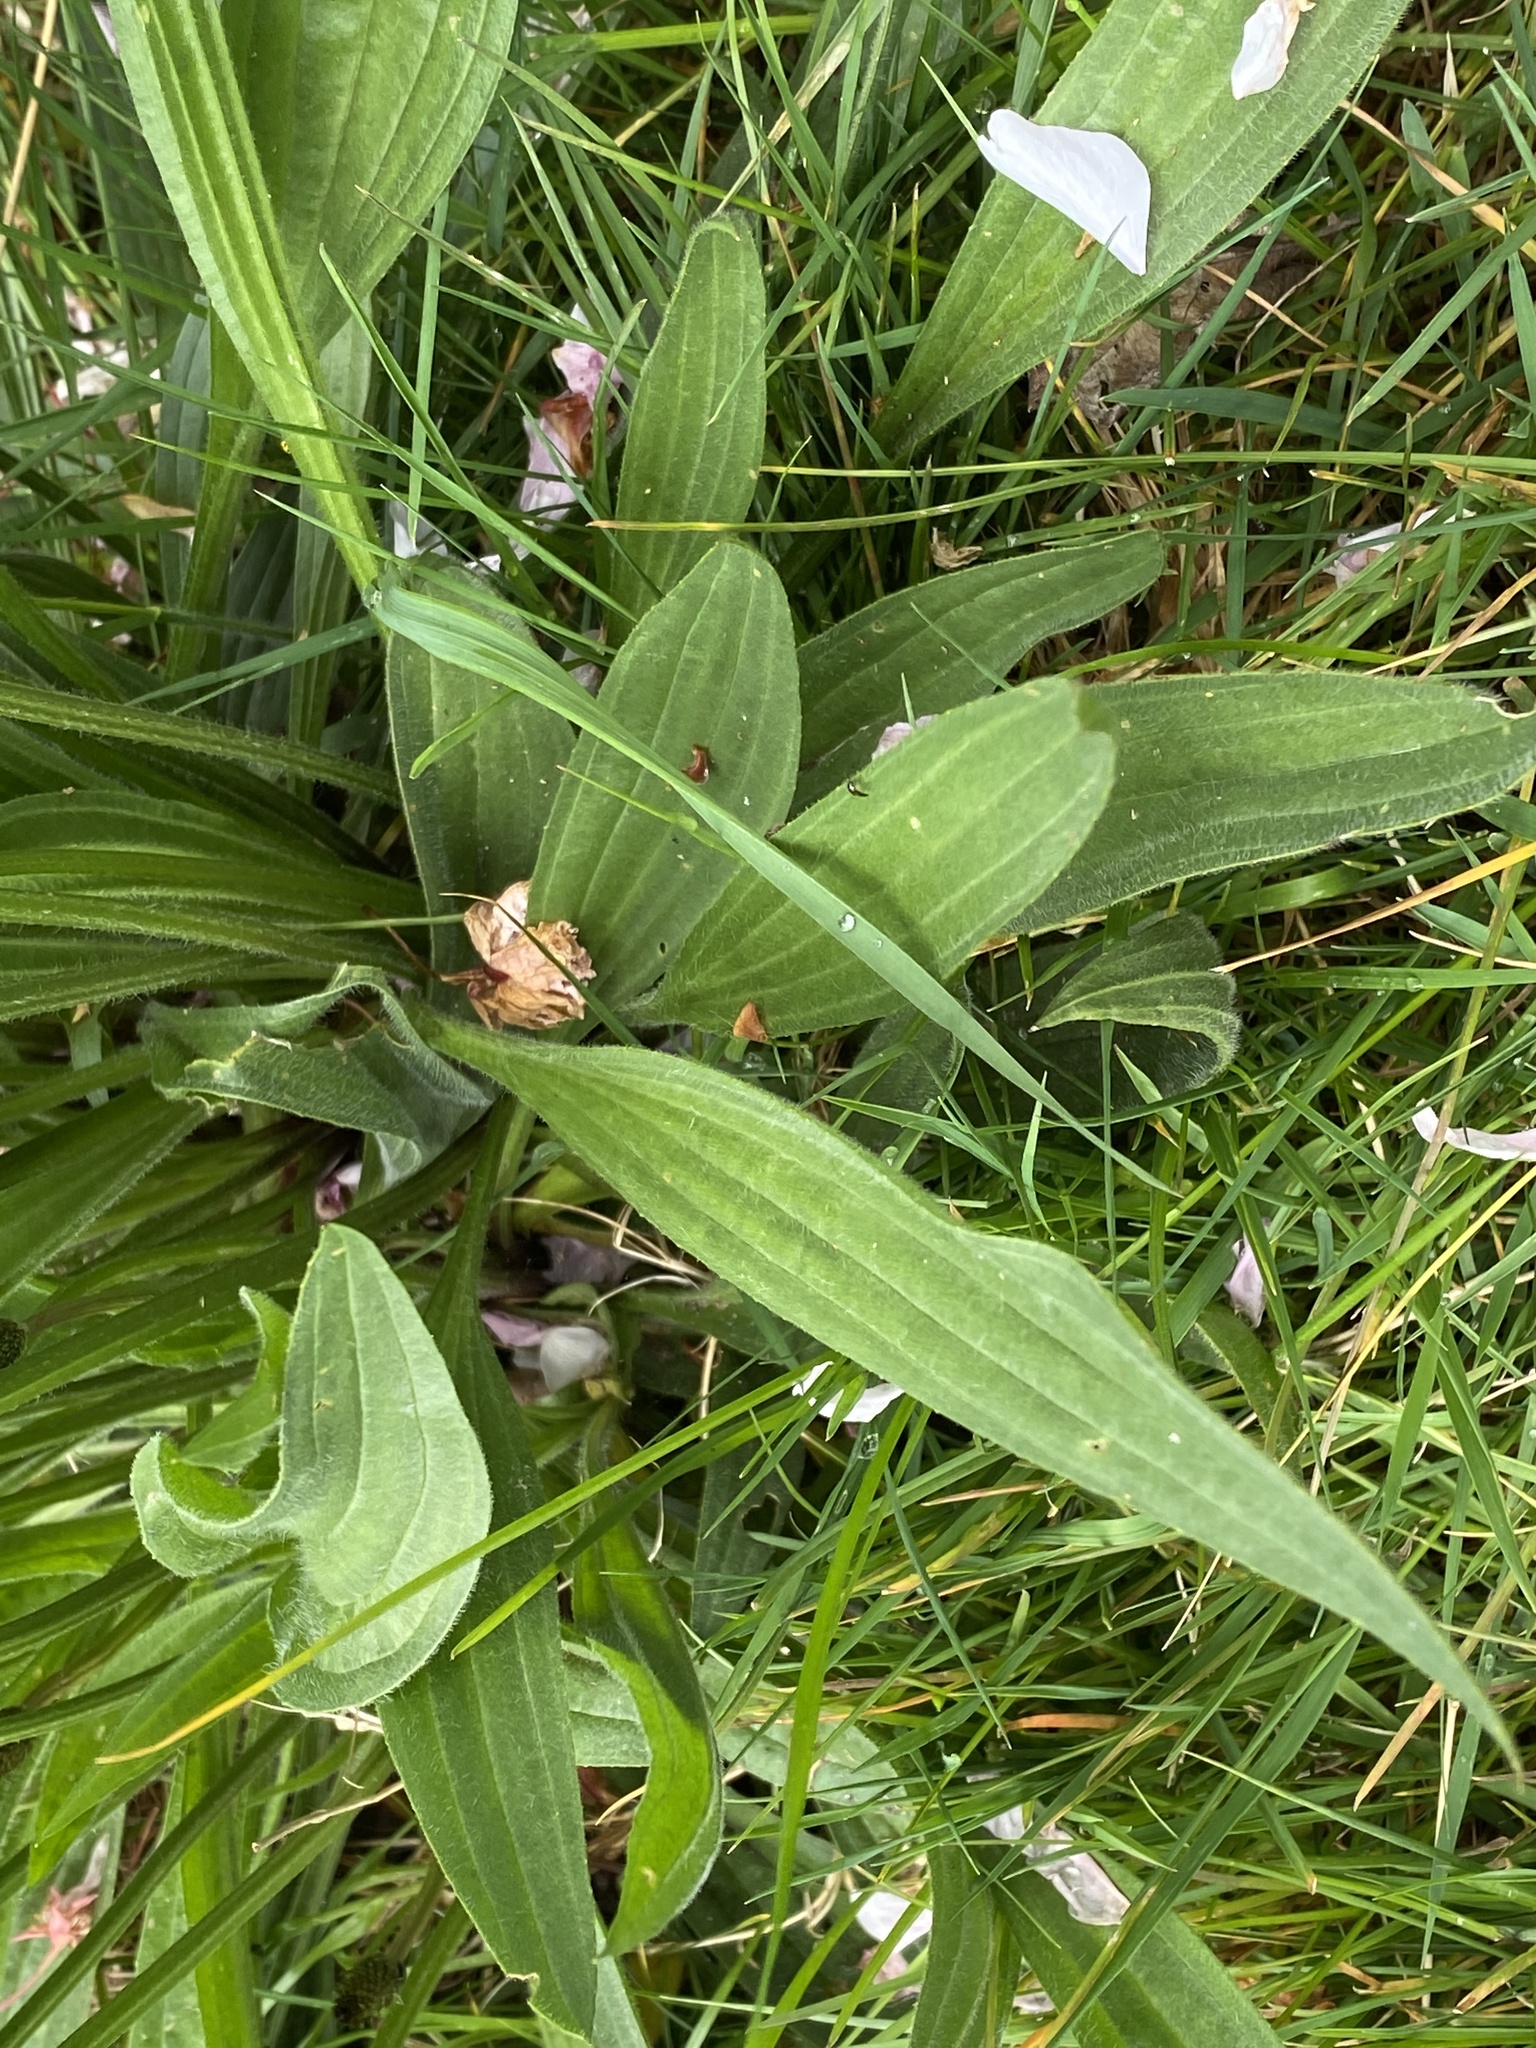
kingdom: Plantae
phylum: Tracheophyta
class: Magnoliopsida
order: Lamiales
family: Plantaginaceae
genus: Plantago
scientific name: Plantago lanceolata
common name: Ribwort plantain
